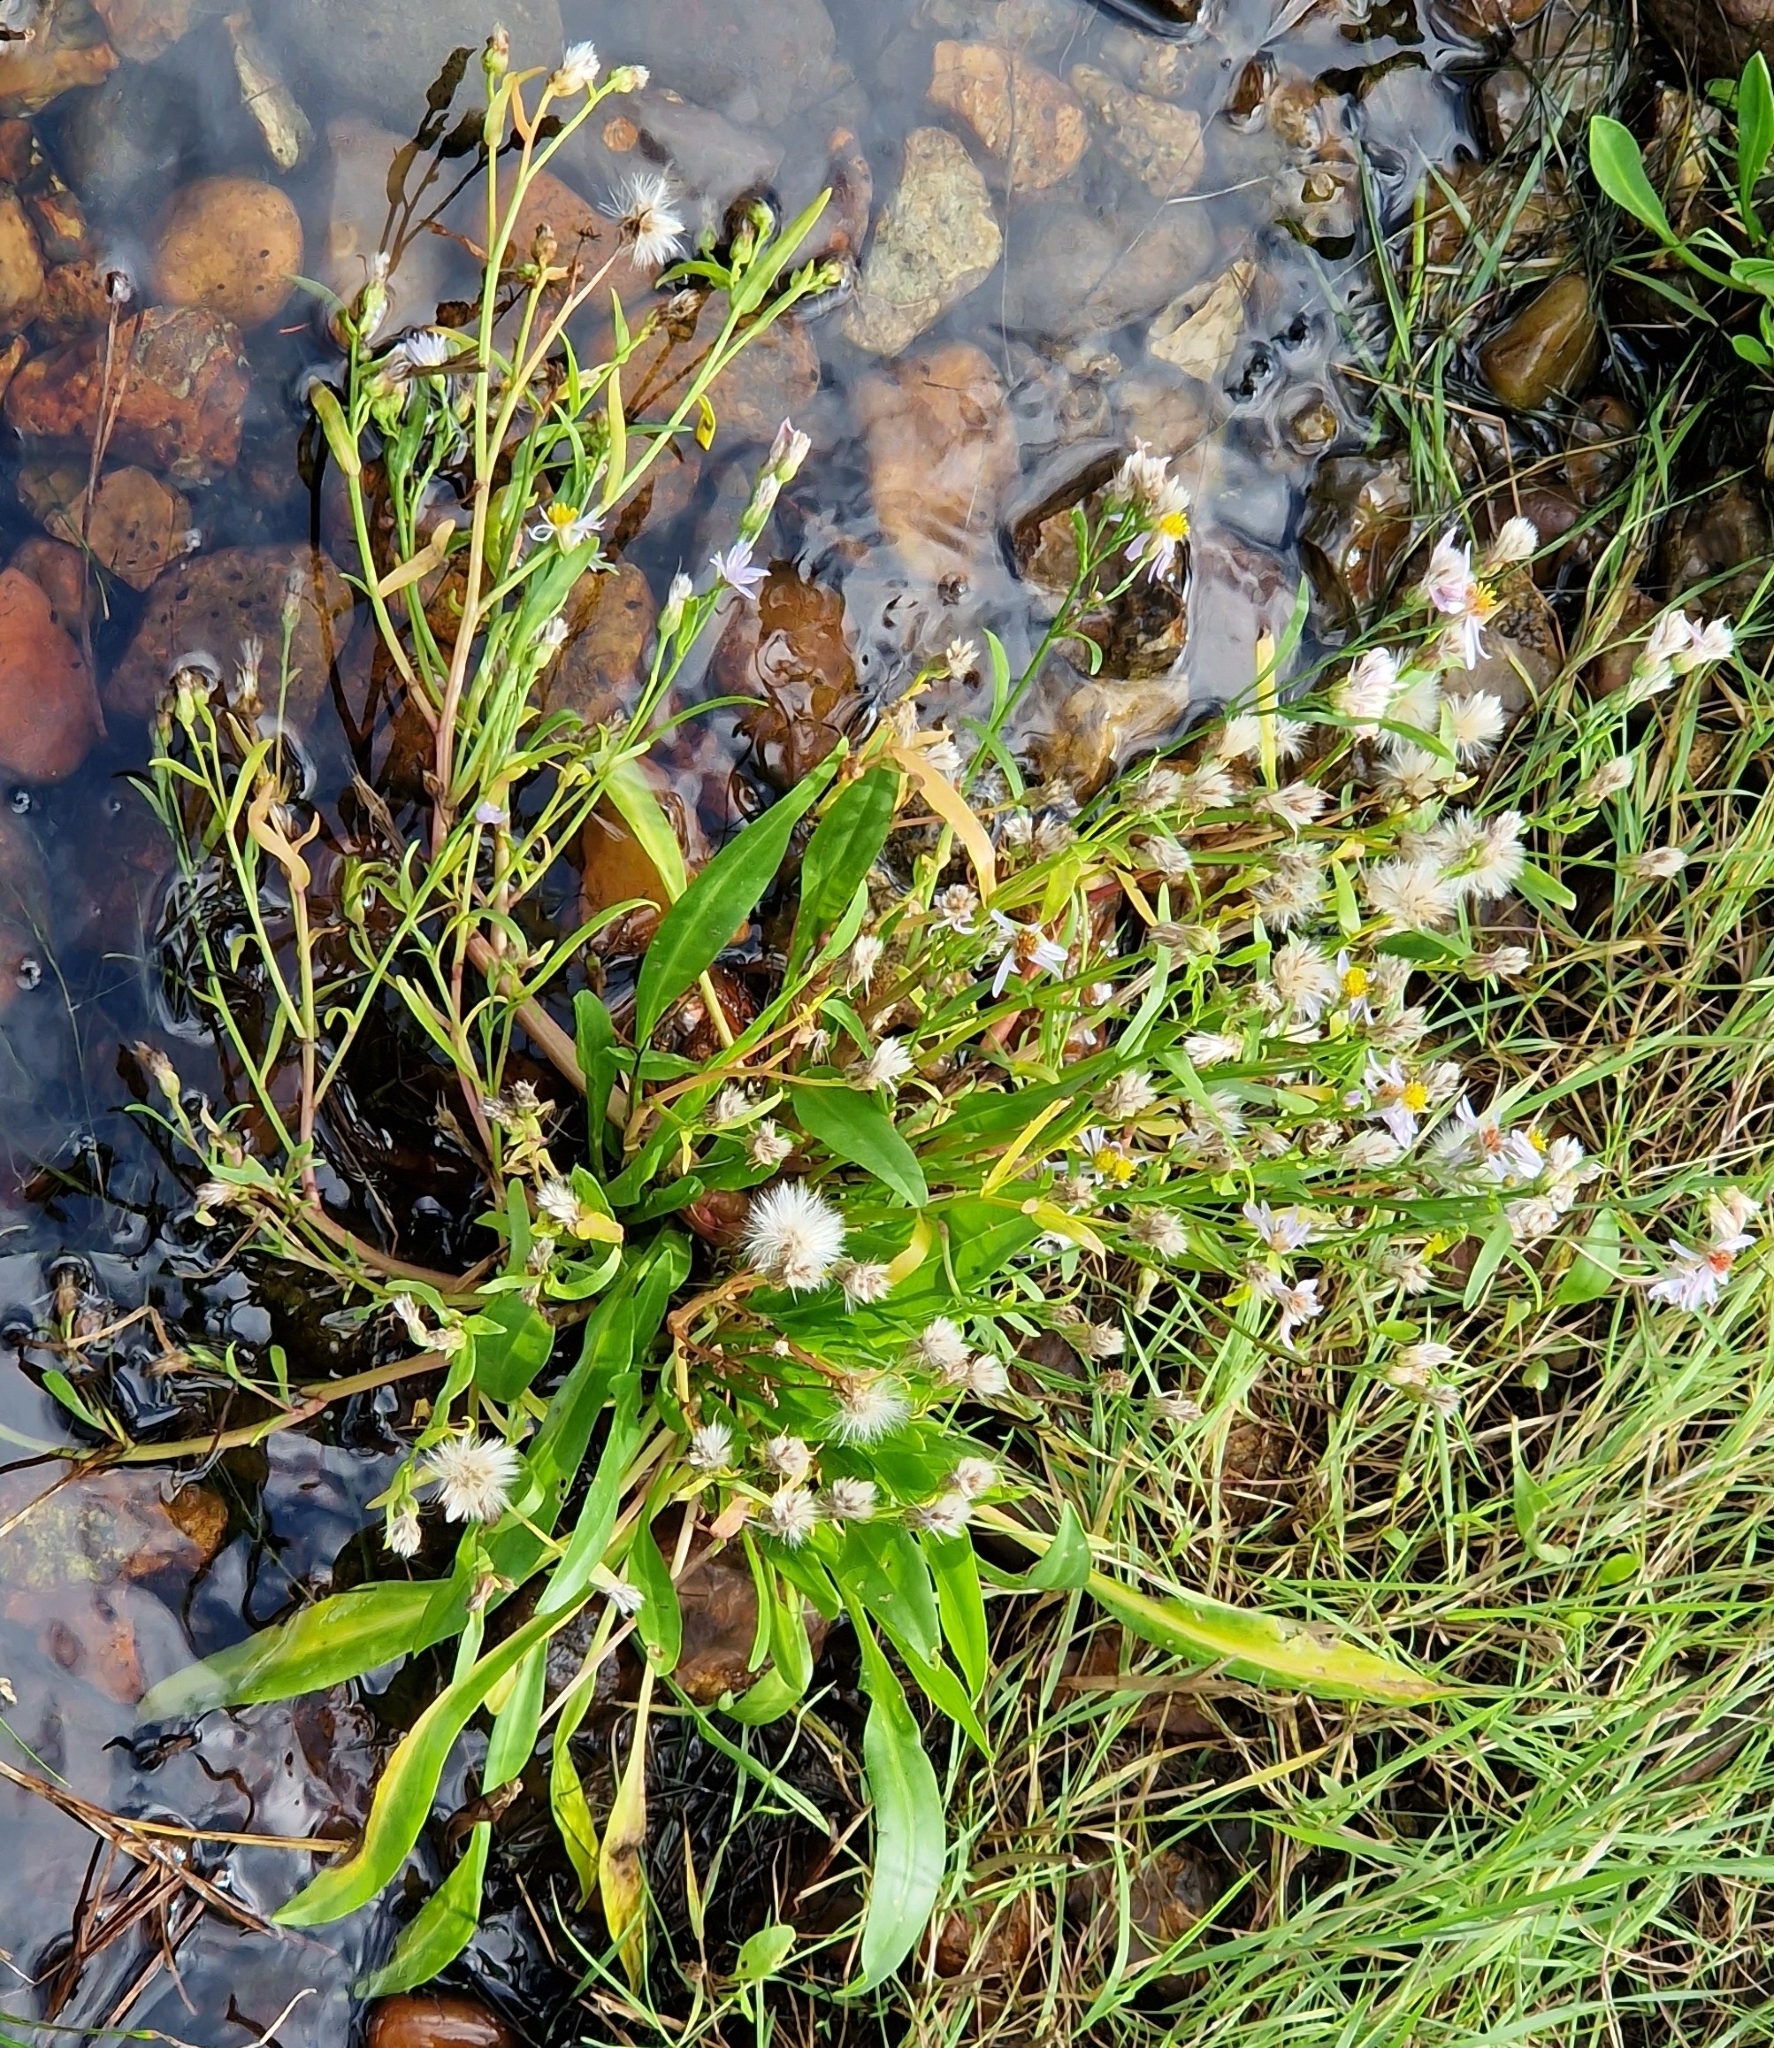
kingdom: Plantae
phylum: Tracheophyta
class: Magnoliopsida
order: Asterales
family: Asteraceae
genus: Tripolium
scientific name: Tripolium pannonicum
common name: Sea aster
